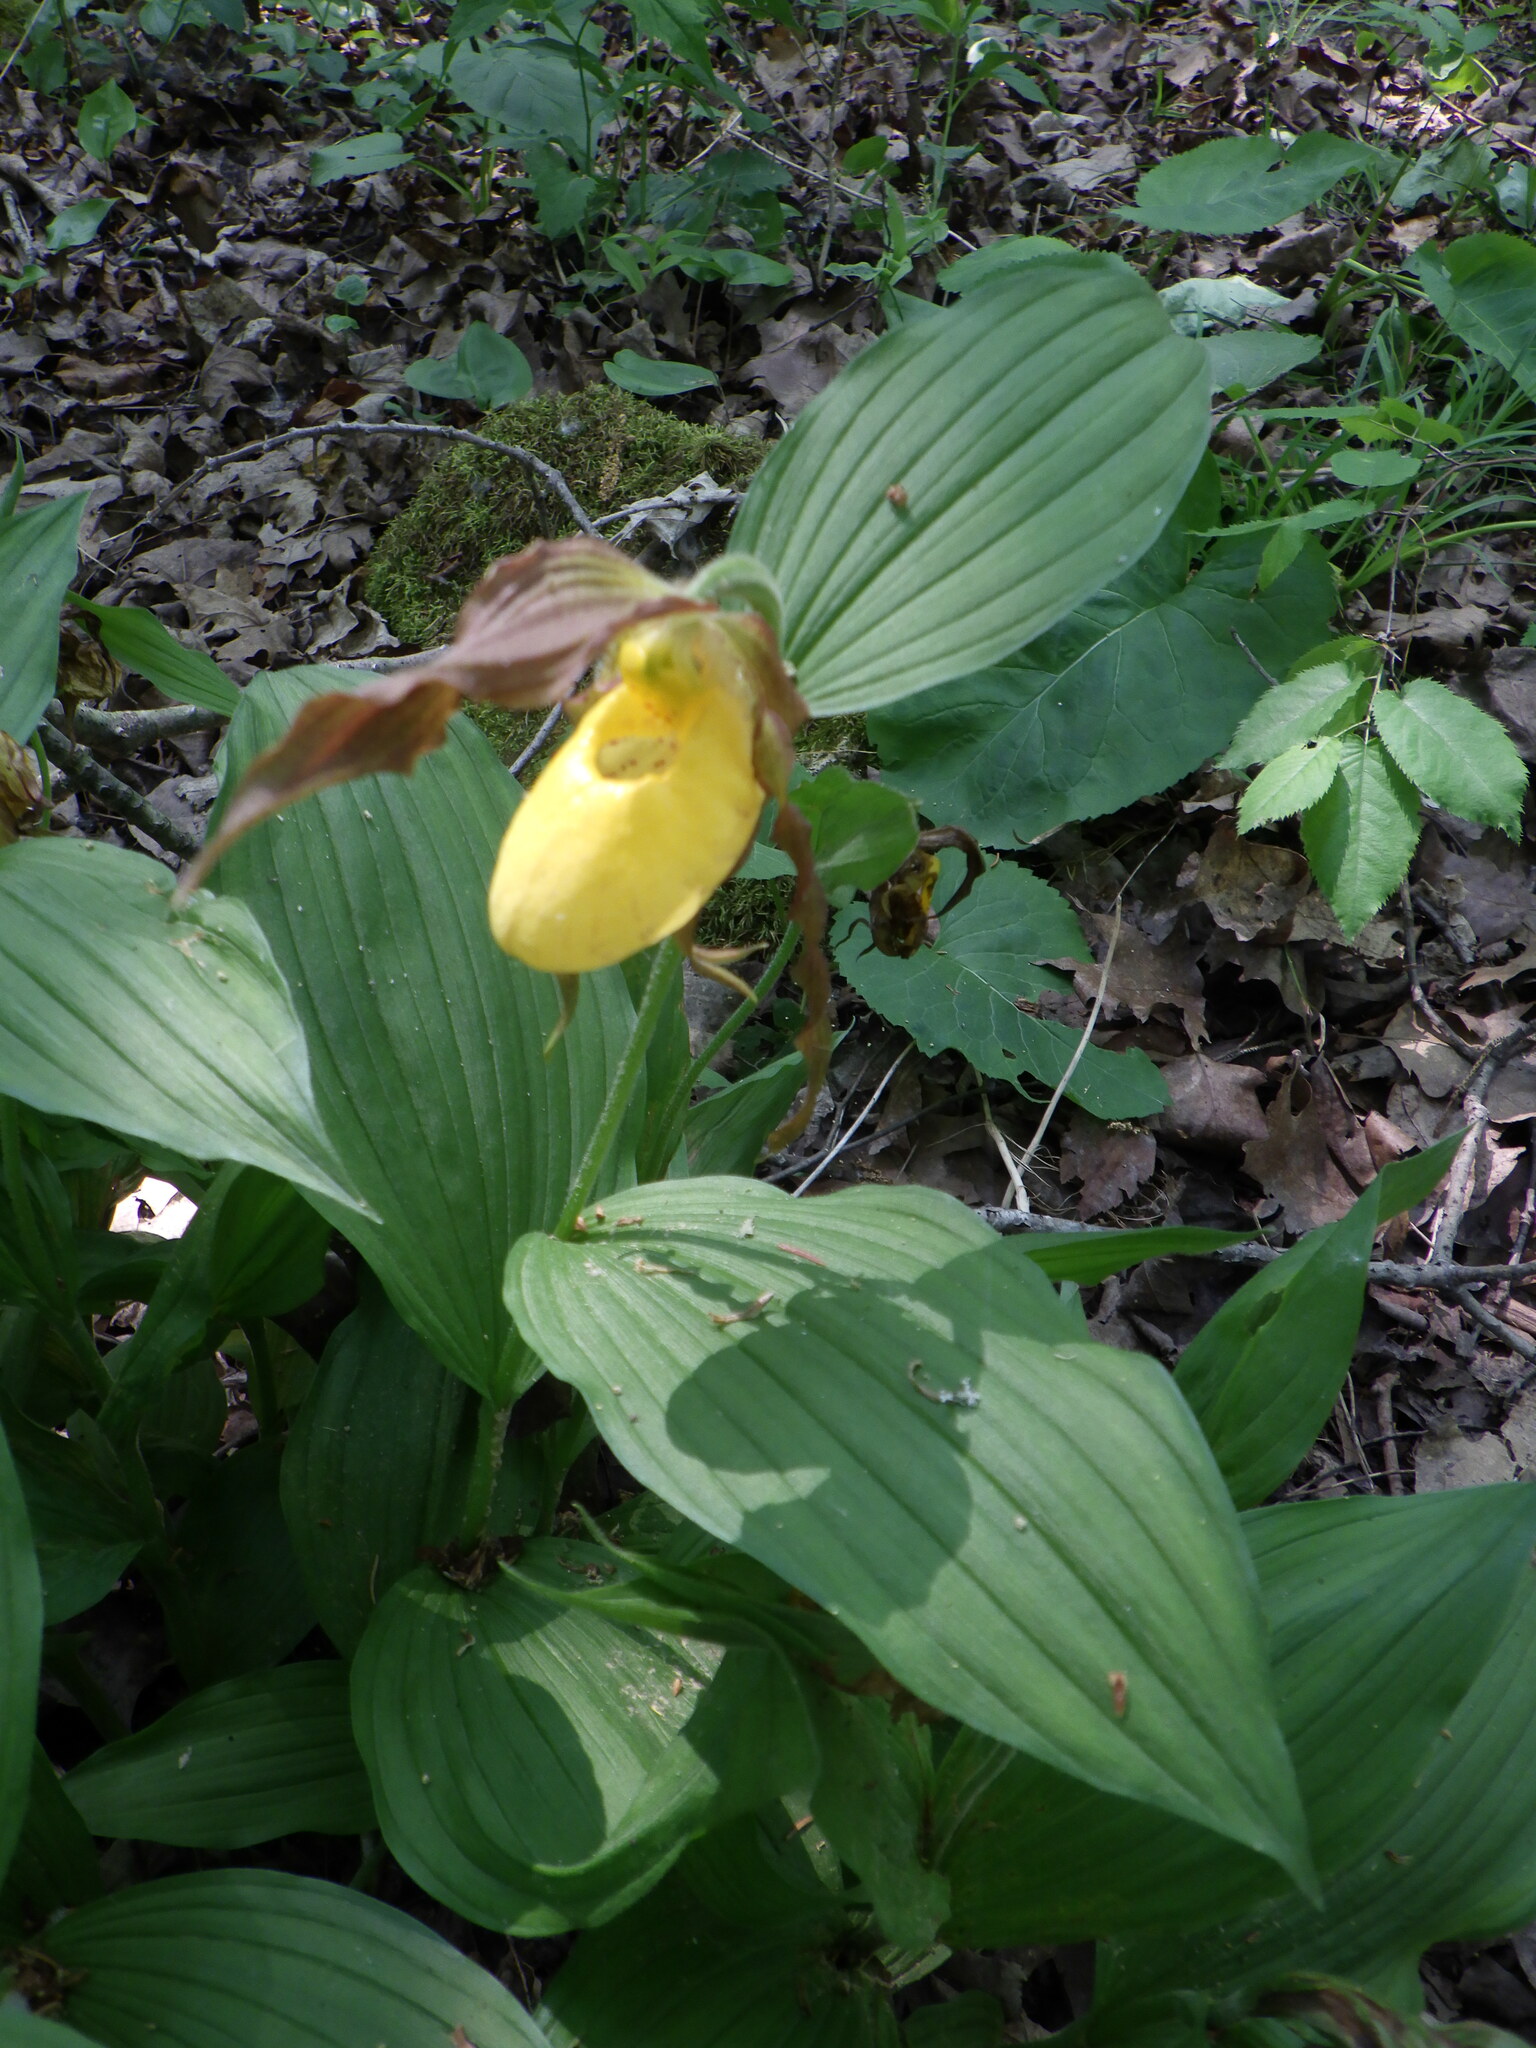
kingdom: Plantae
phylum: Tracheophyta
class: Liliopsida
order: Asparagales
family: Orchidaceae
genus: Cypripedium
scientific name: Cypripedium parviflorum
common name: American yellow lady's-slipper
